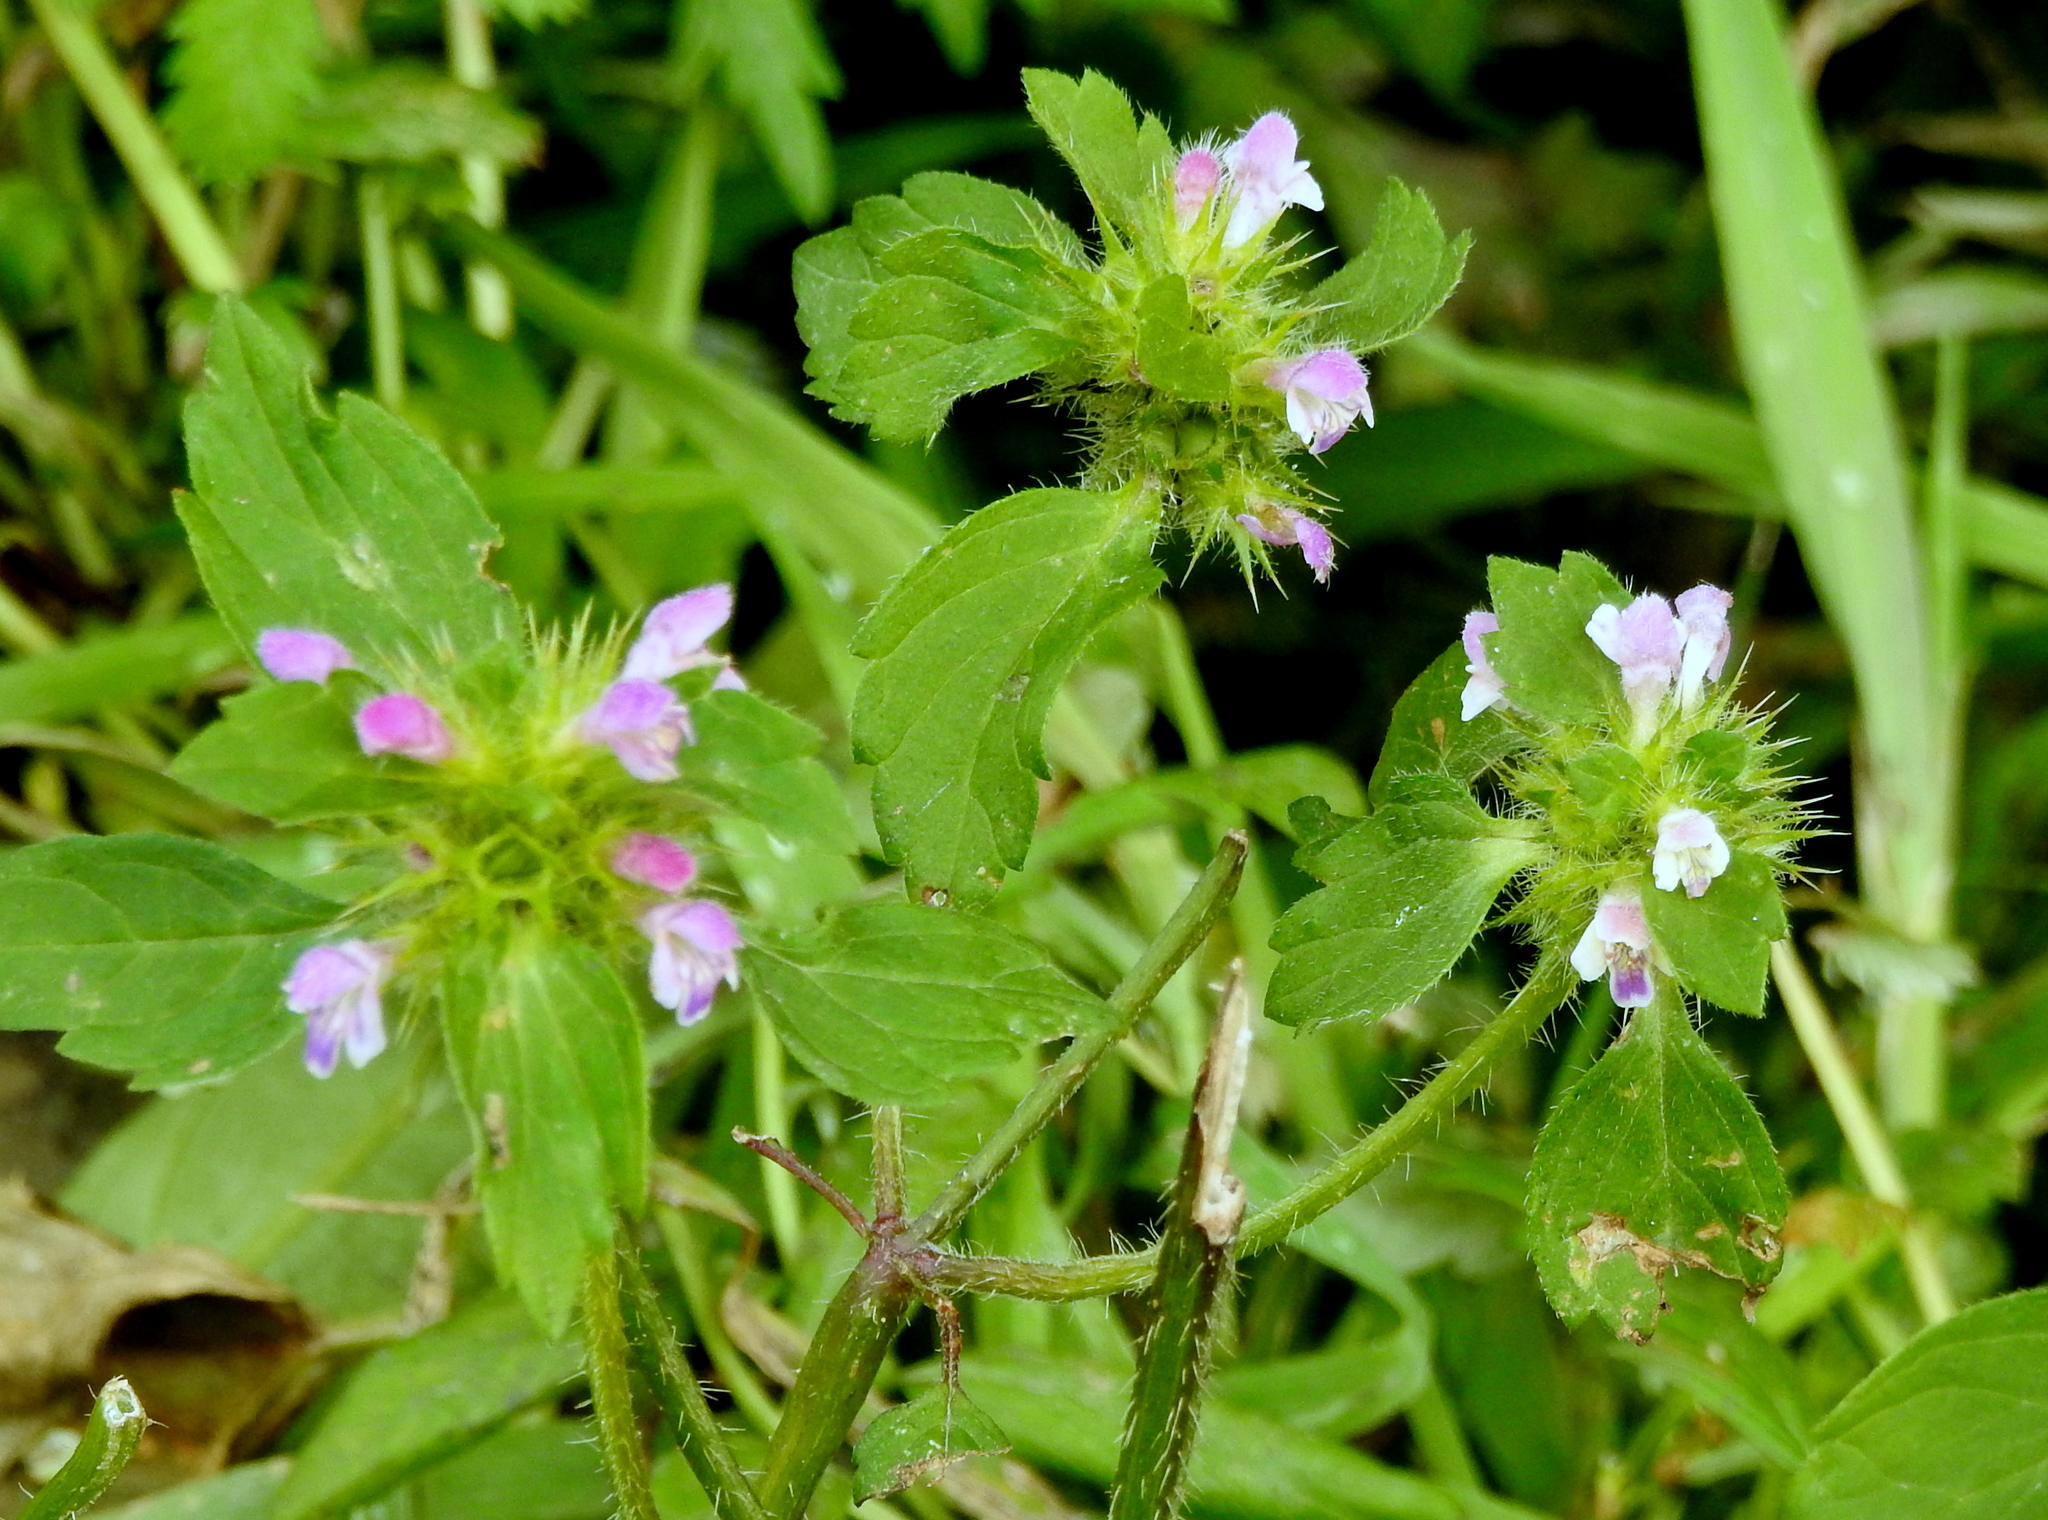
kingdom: Plantae
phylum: Tracheophyta
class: Magnoliopsida
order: Lamiales
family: Lamiaceae
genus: Galeopsis
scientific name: Galeopsis bifida
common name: Bifid hemp-nettle
